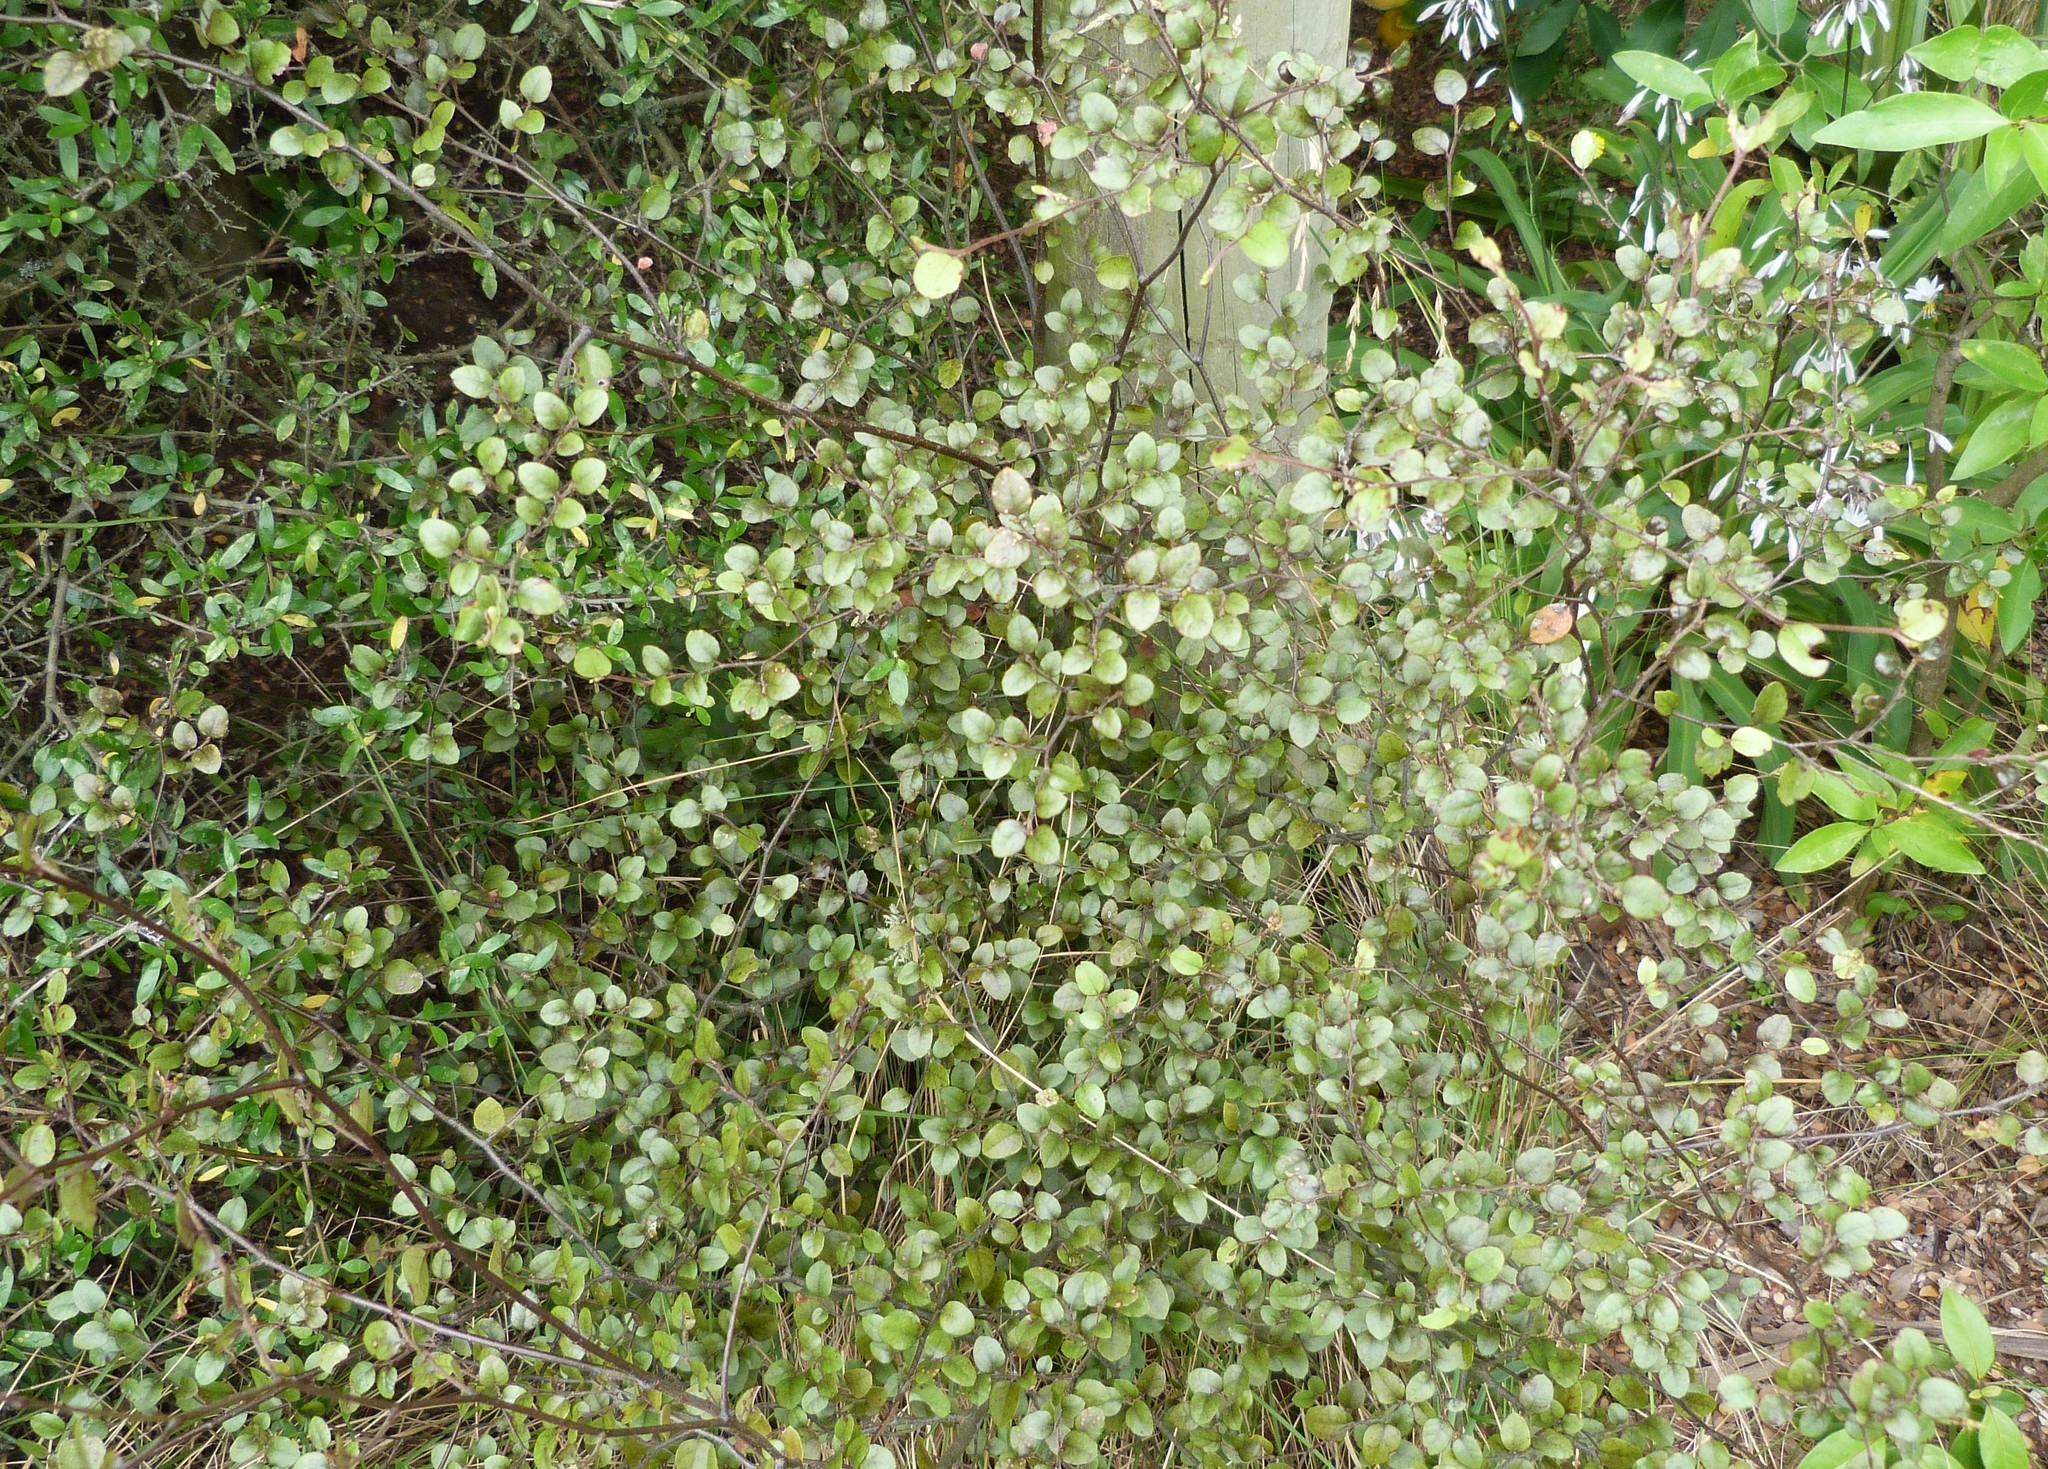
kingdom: Plantae
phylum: Tracheophyta
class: Magnoliopsida
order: Fagales
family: Nothofagaceae
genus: Nothofagus
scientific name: Nothofagus solandri
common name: Black beech
